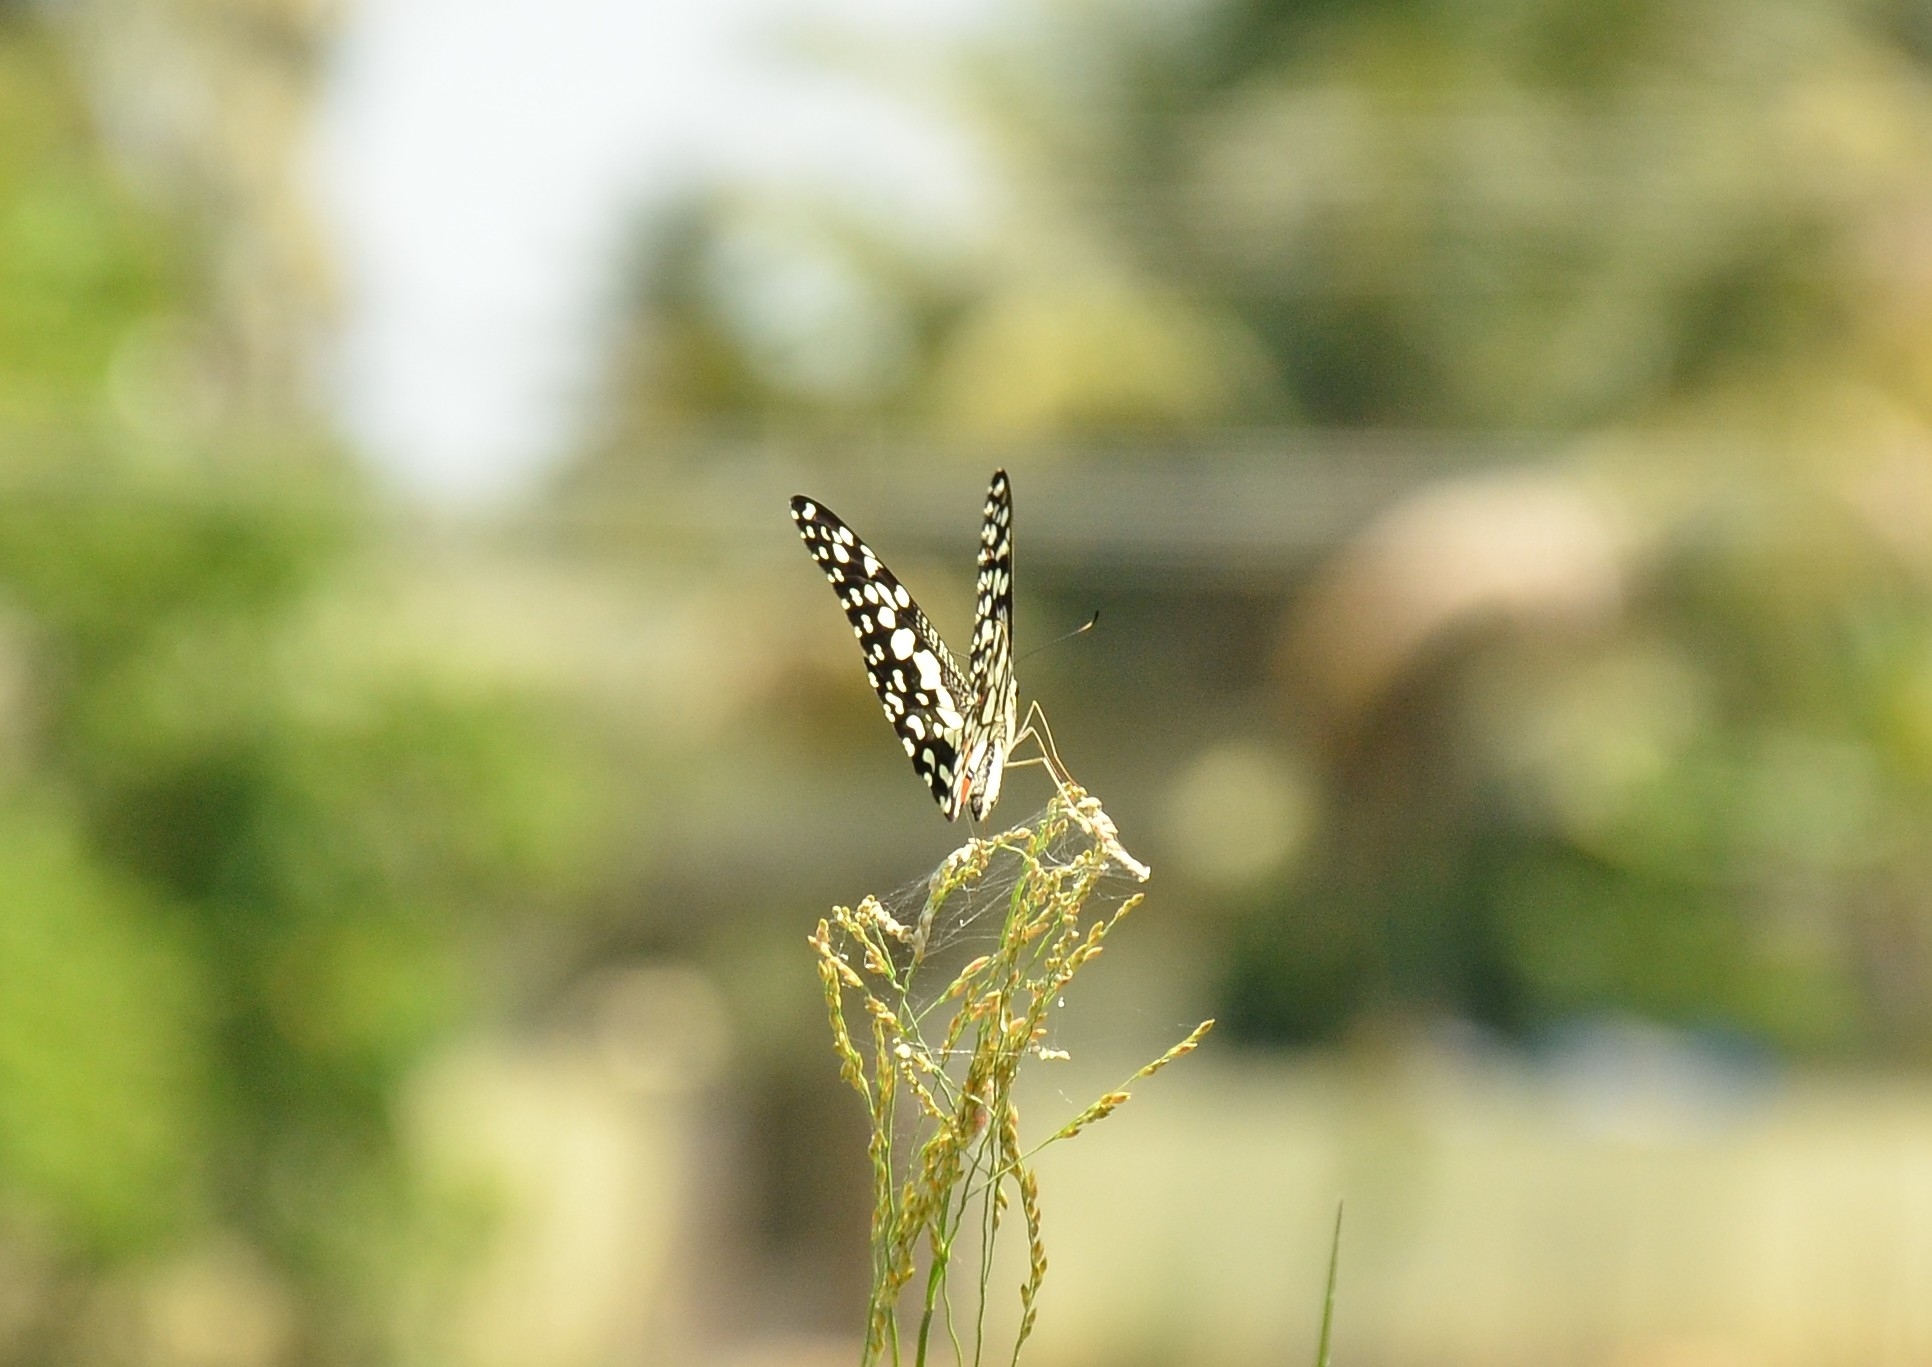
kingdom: Animalia
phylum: Arthropoda
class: Insecta
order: Lepidoptera
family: Papilionidae
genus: Papilio
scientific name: Papilio demoleus
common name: Lime butterfly
